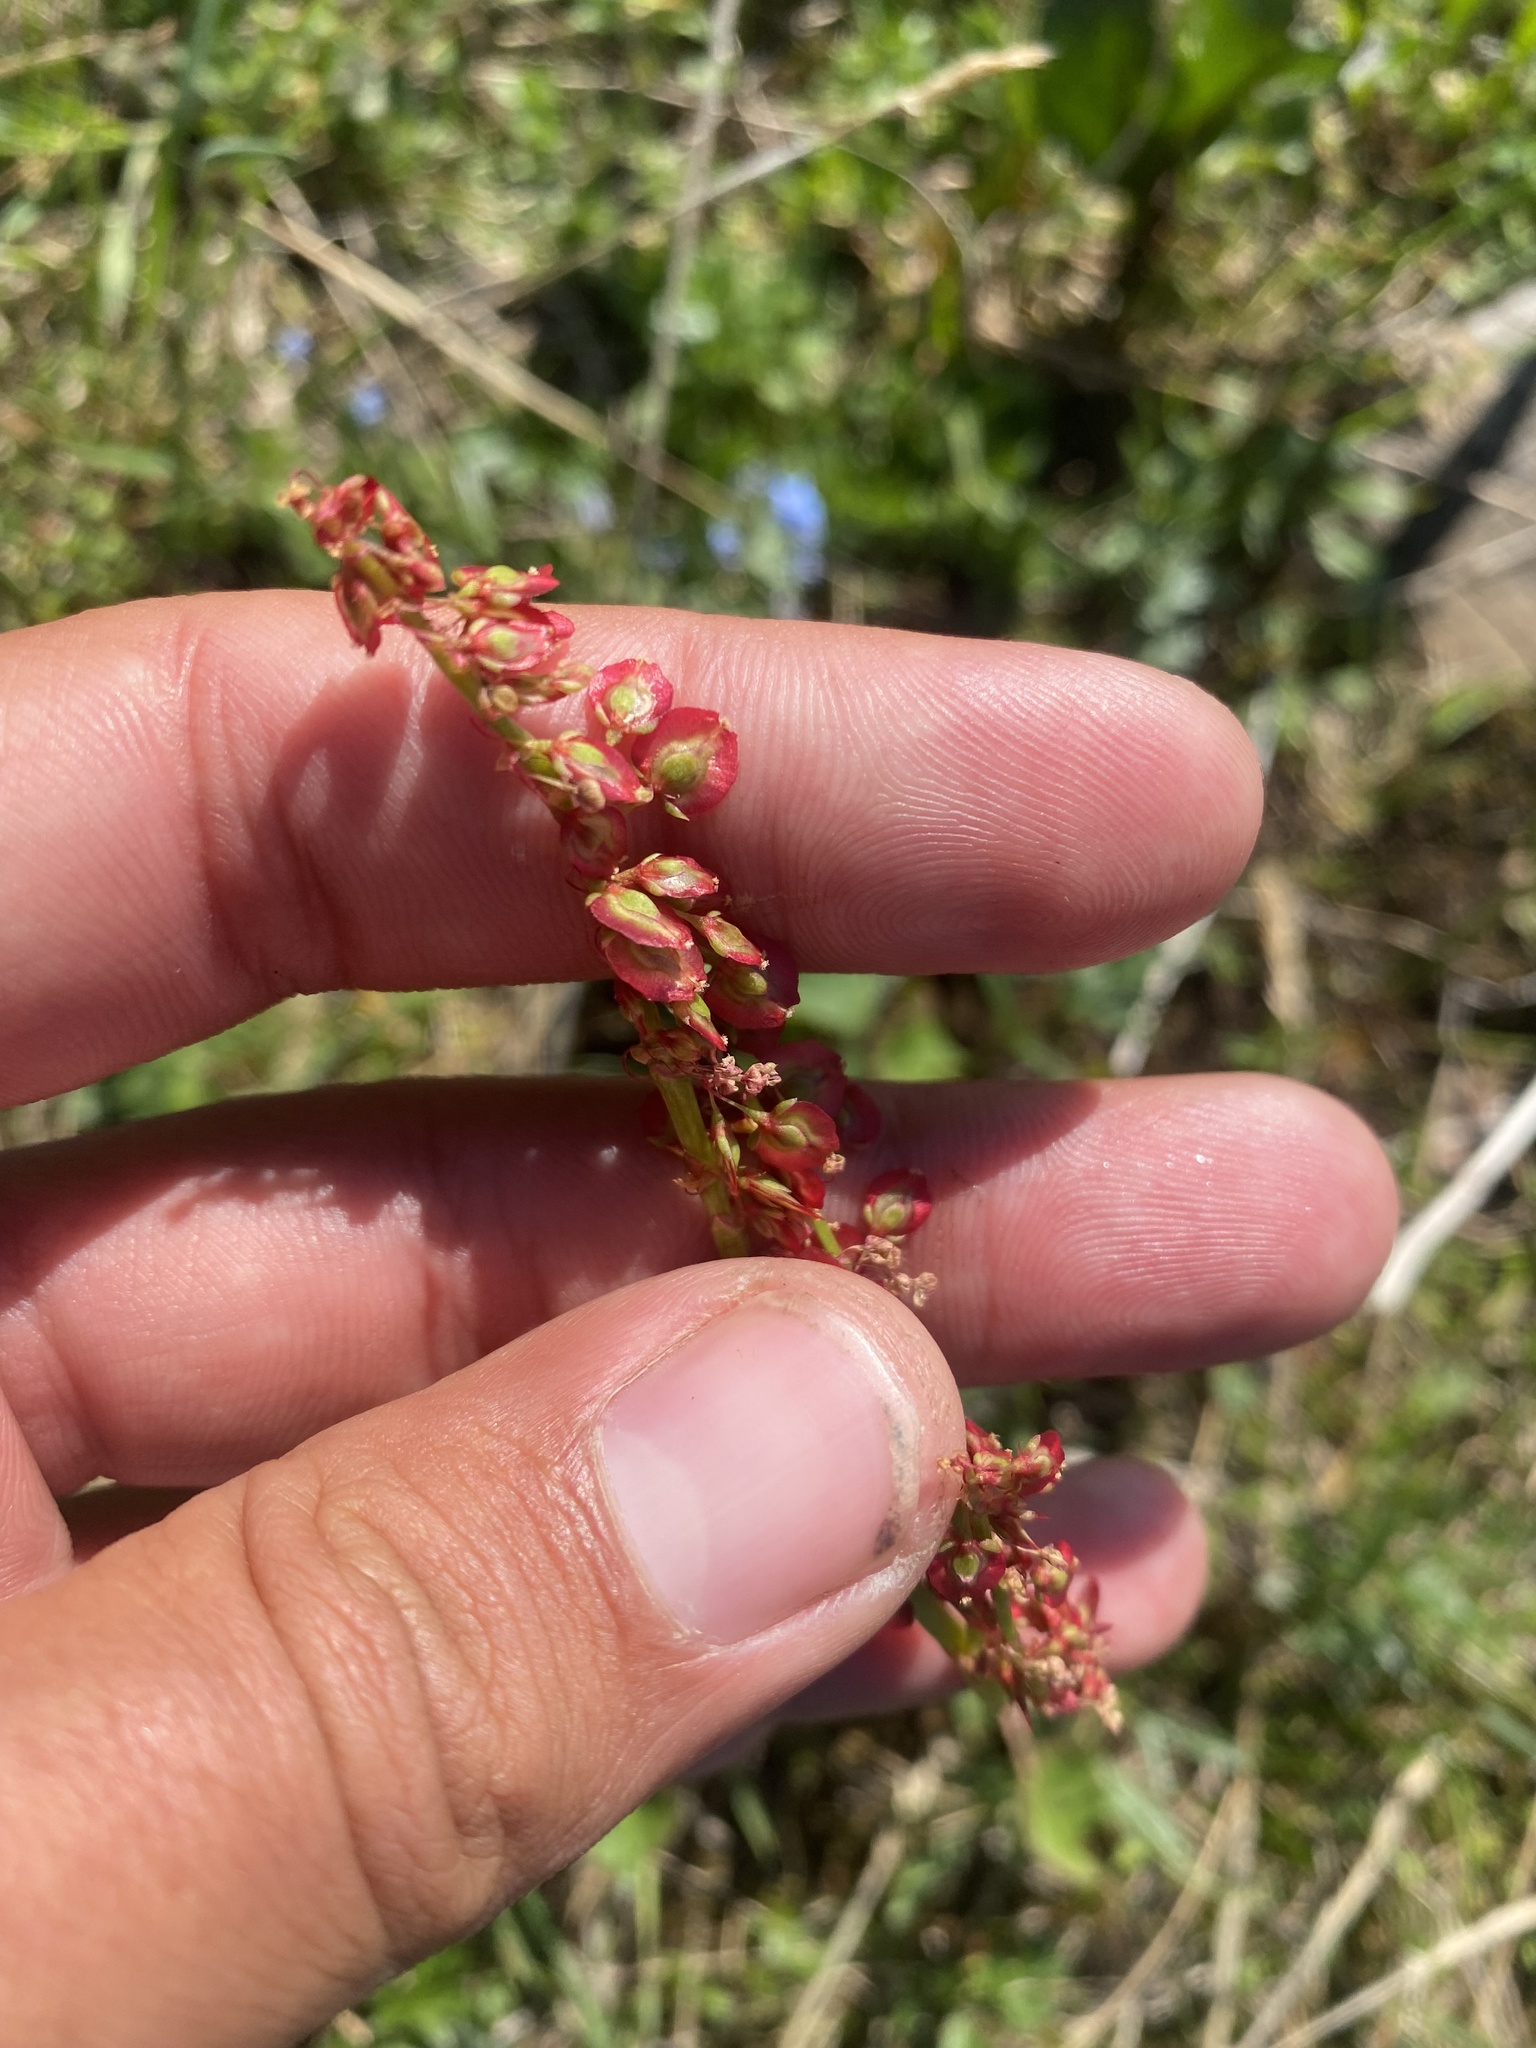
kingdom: Plantae
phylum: Tracheophyta
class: Magnoliopsida
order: Caryophyllales
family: Polygonaceae
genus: Oxyria
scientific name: Oxyria digyna
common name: Alpine mountain-sorrel
